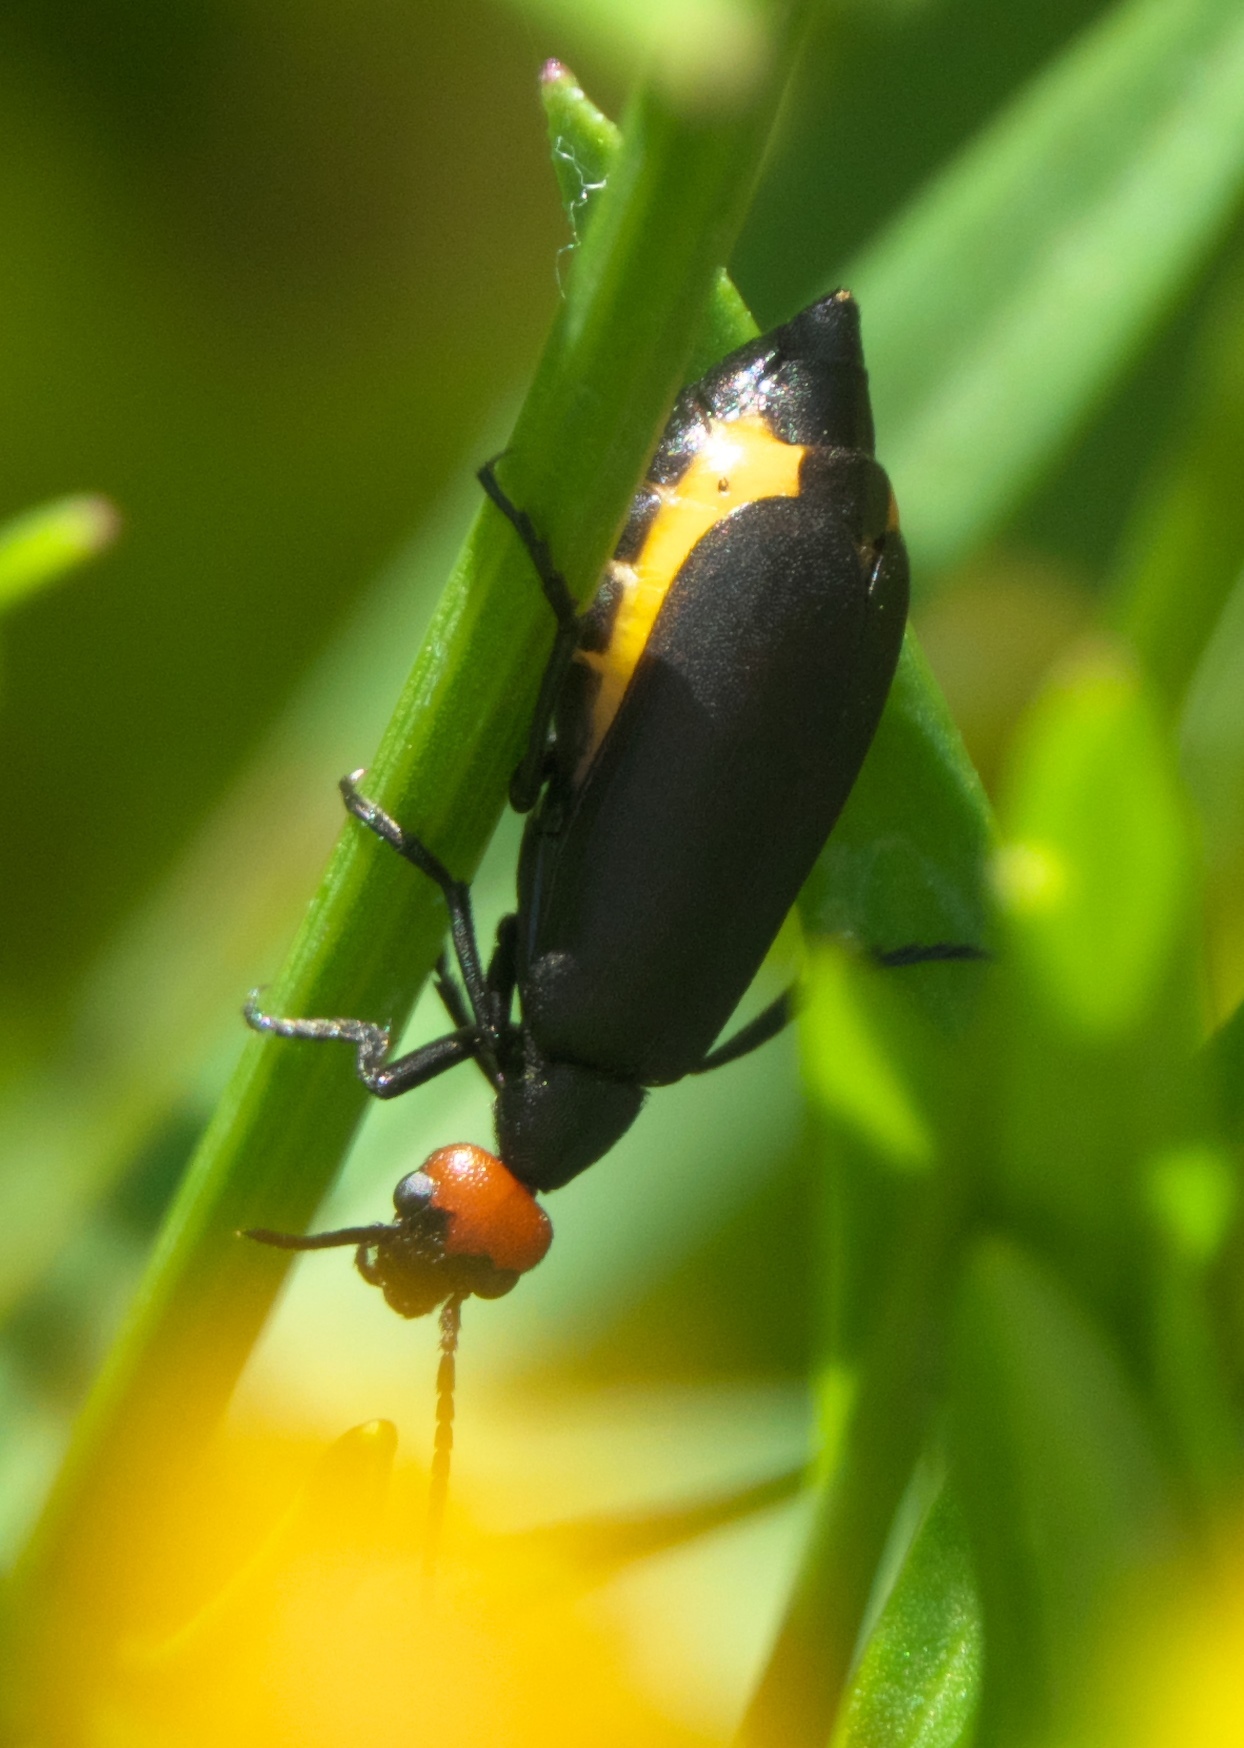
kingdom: Animalia
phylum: Arthropoda
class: Insecta
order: Coleoptera
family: Meloidae
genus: Epicauta
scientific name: Epicauta atrata
